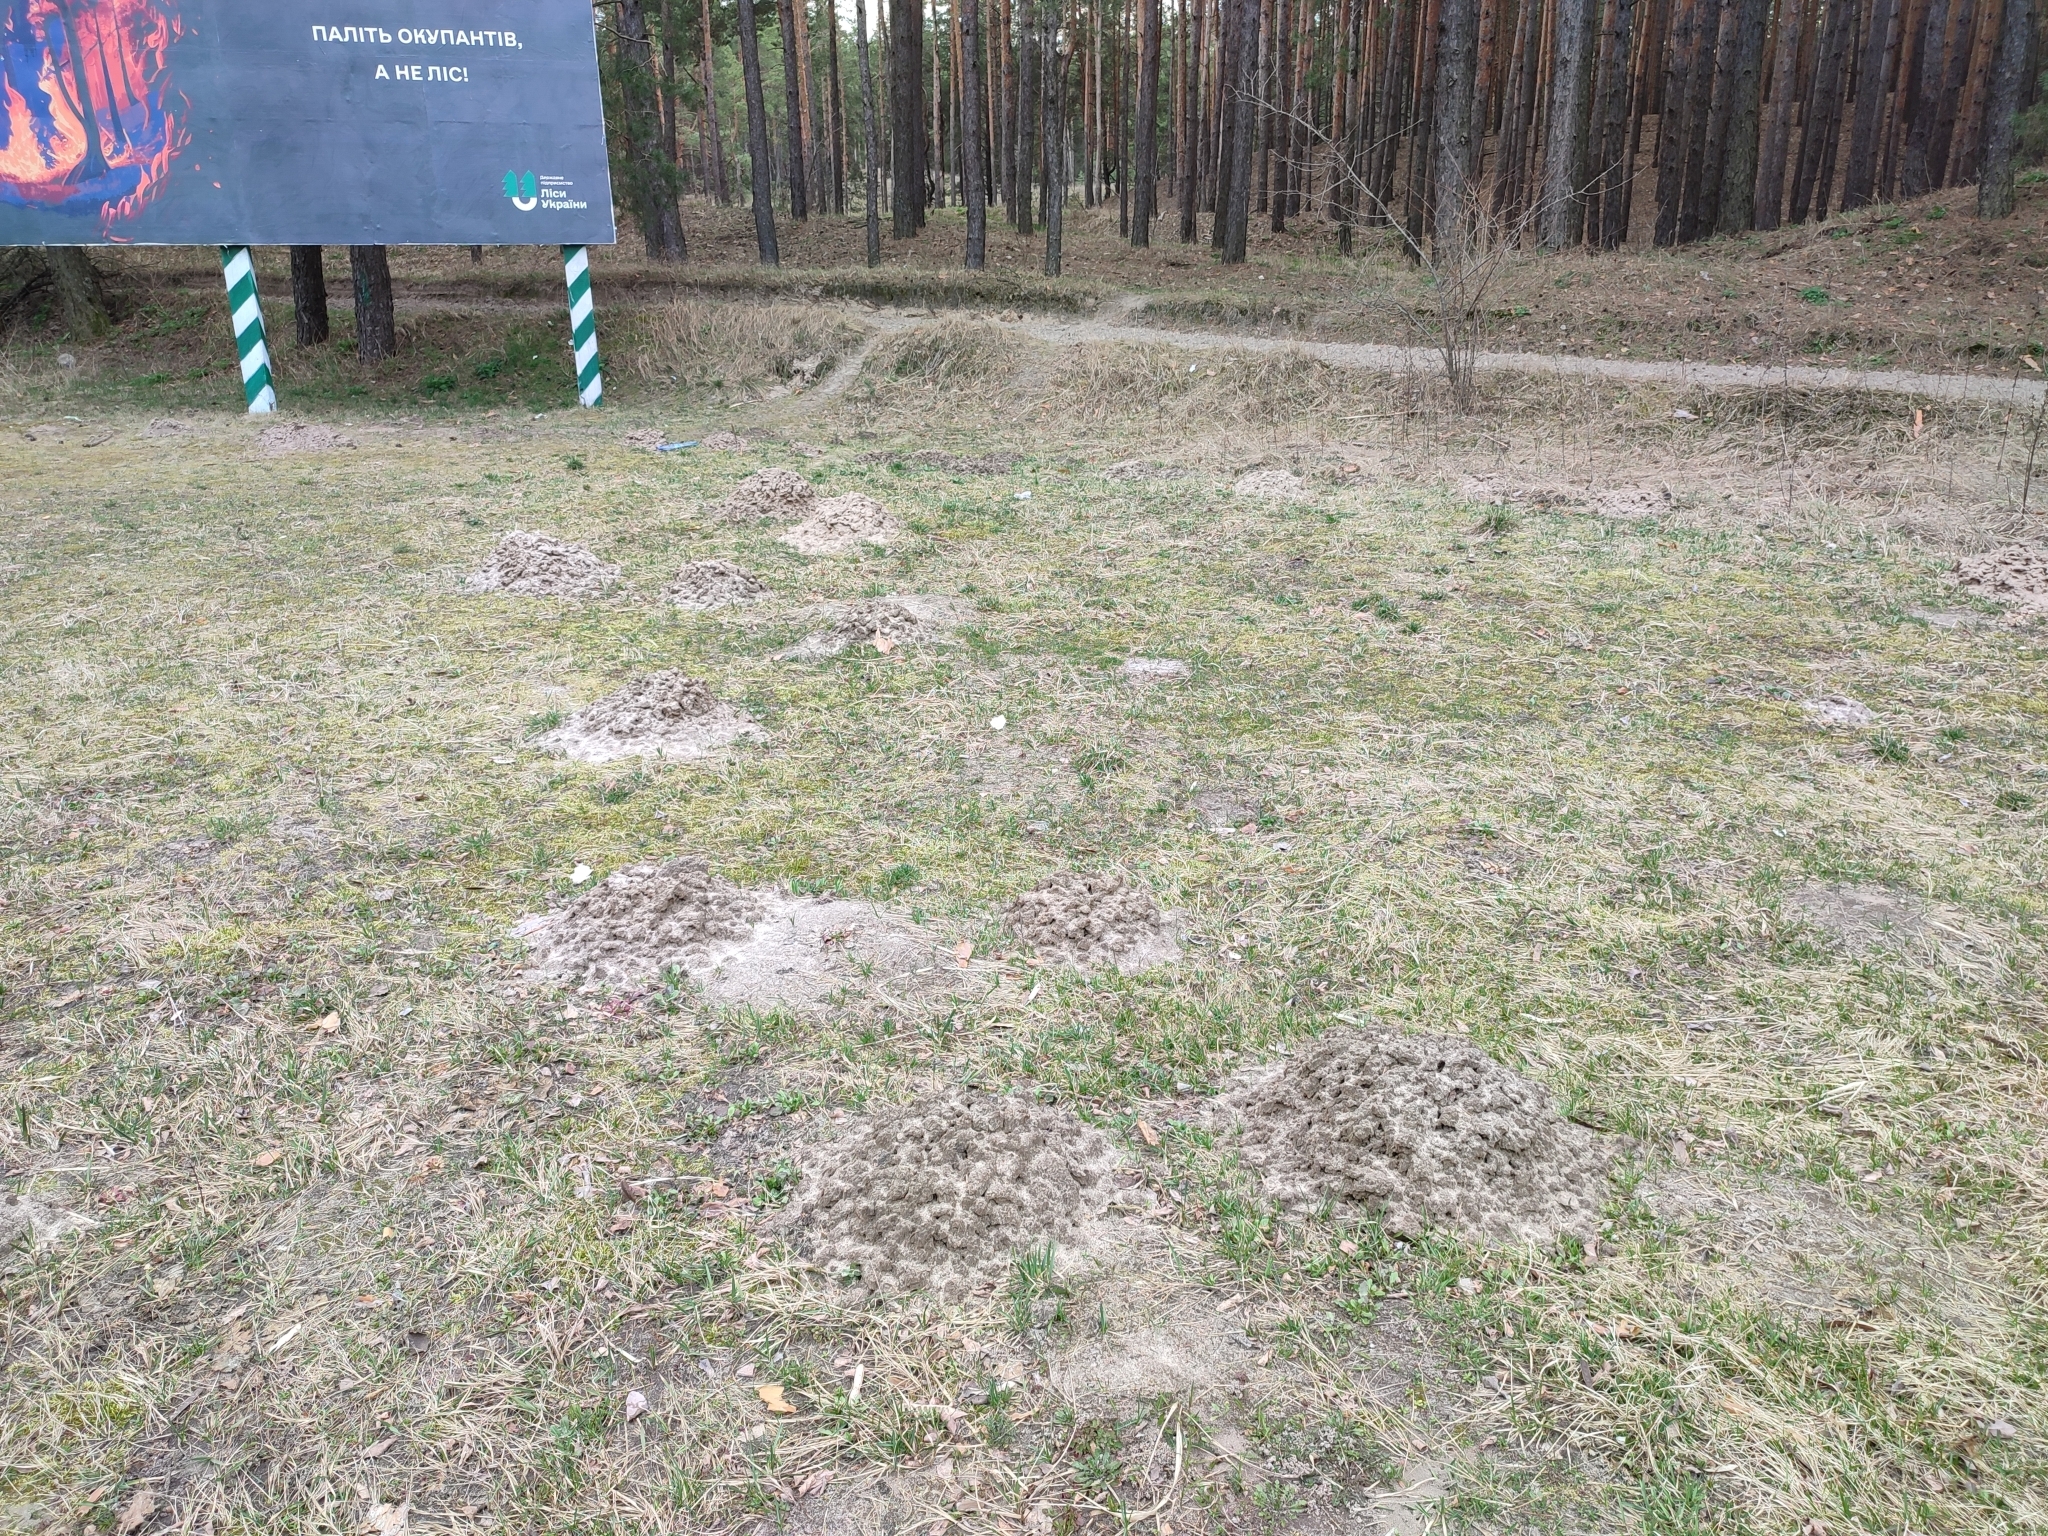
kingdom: Animalia
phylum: Chordata
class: Mammalia
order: Soricomorpha
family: Talpidae
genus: Talpa
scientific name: Talpa europaea
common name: European mole
